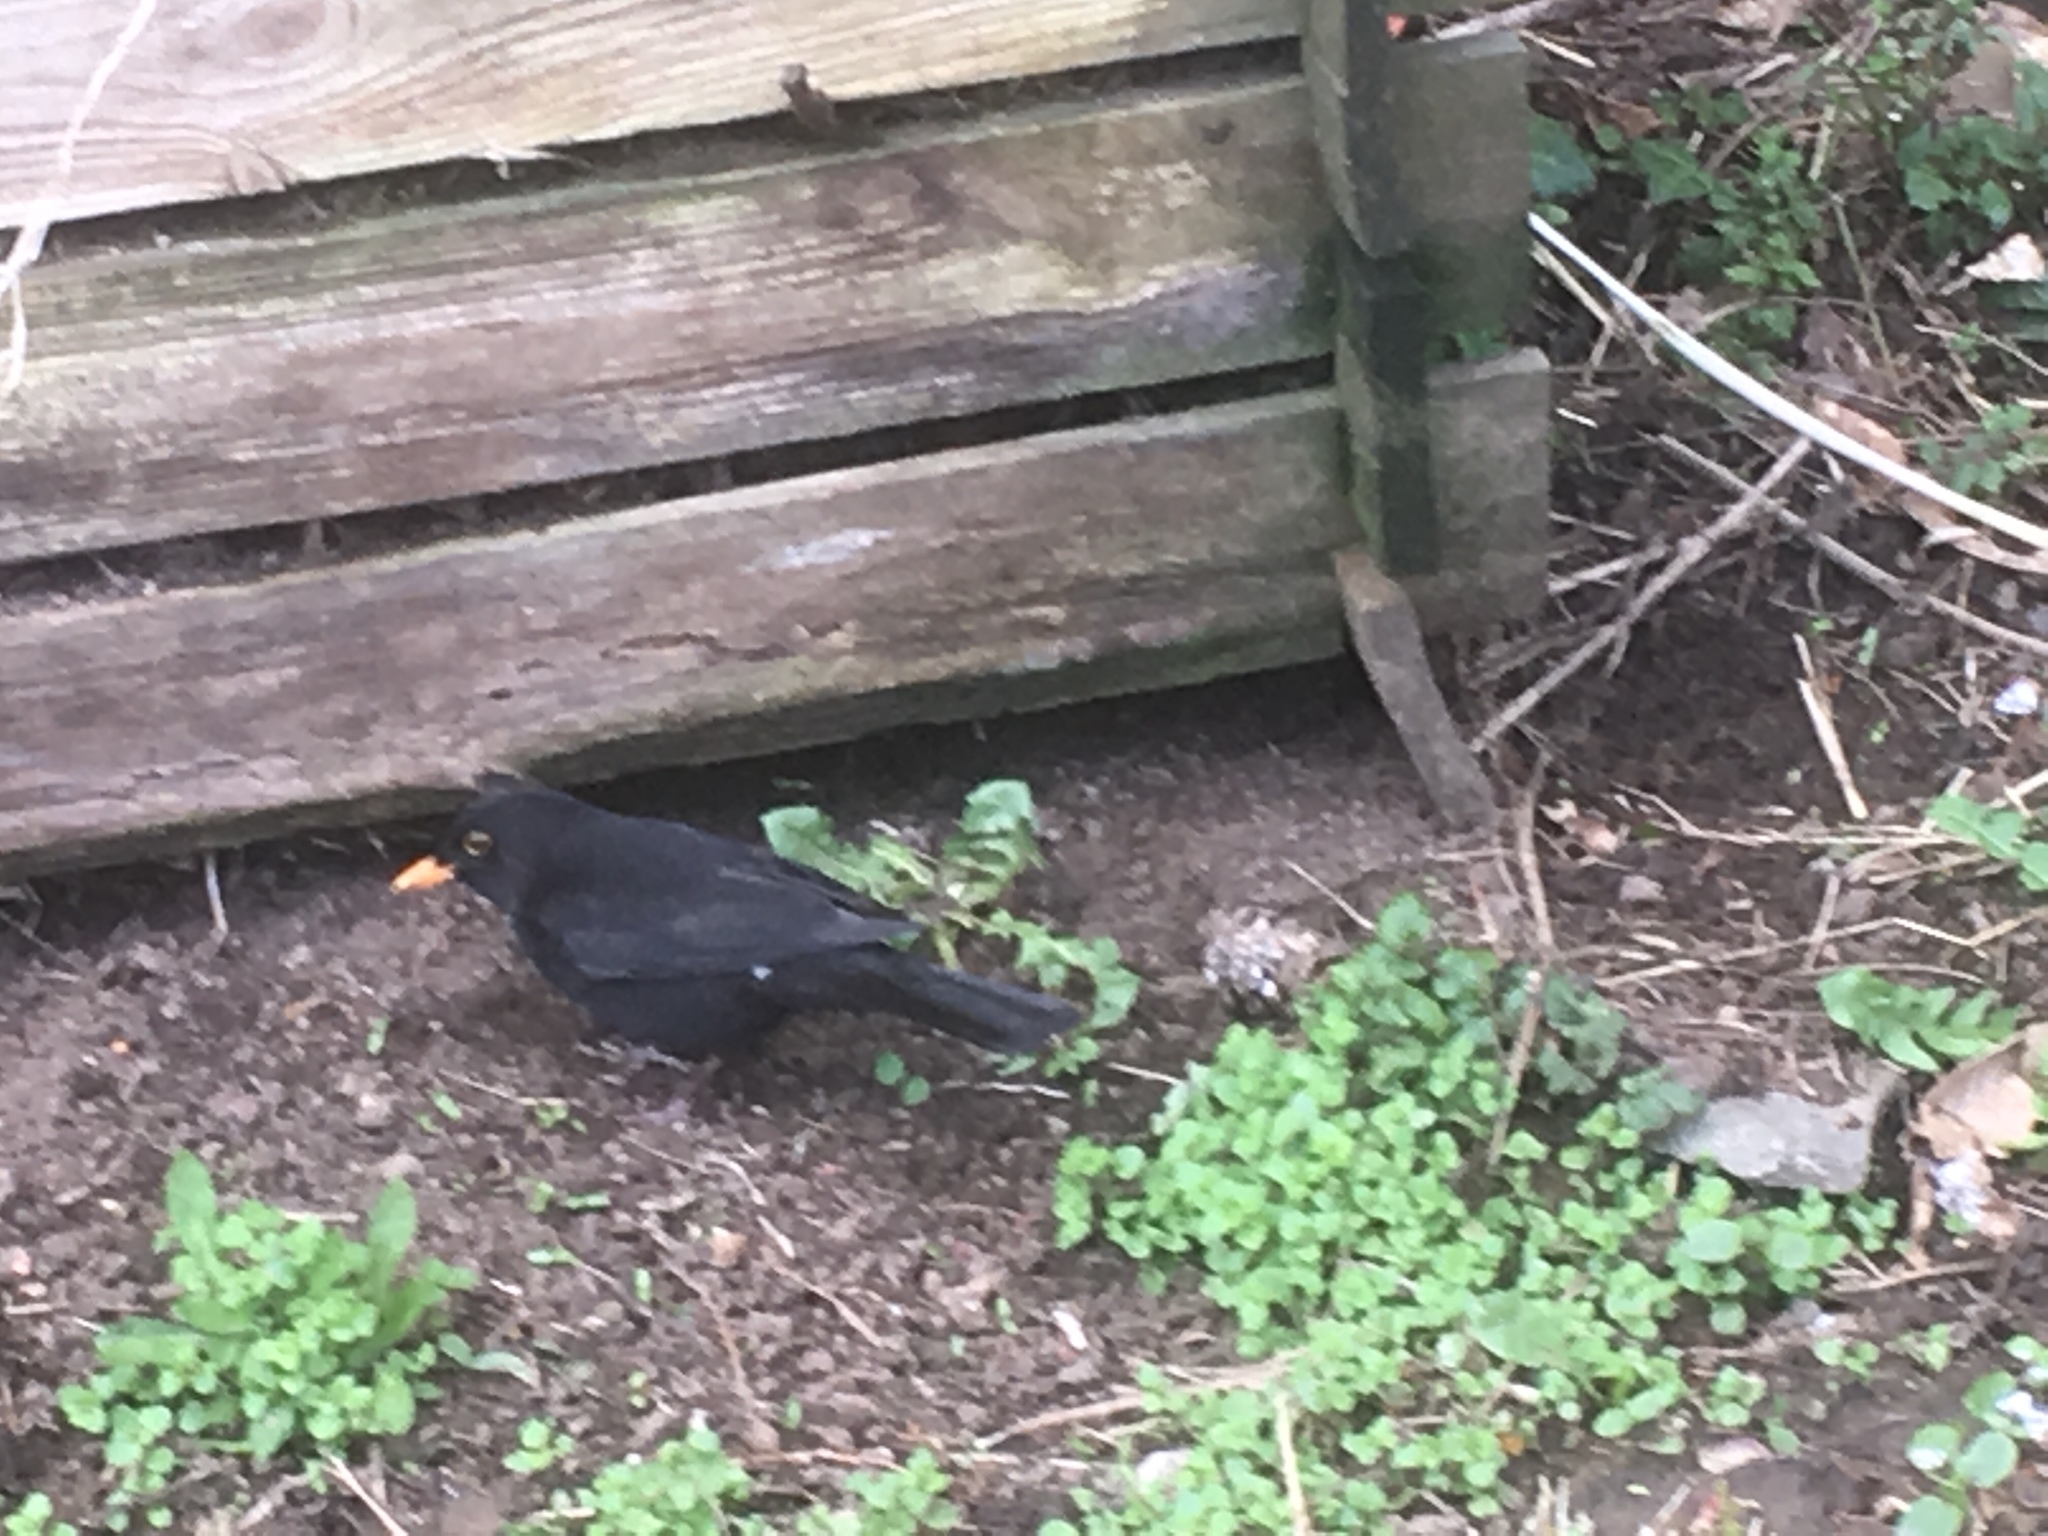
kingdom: Animalia
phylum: Chordata
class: Aves
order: Passeriformes
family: Turdidae
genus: Turdus
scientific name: Turdus merula
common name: Common blackbird
